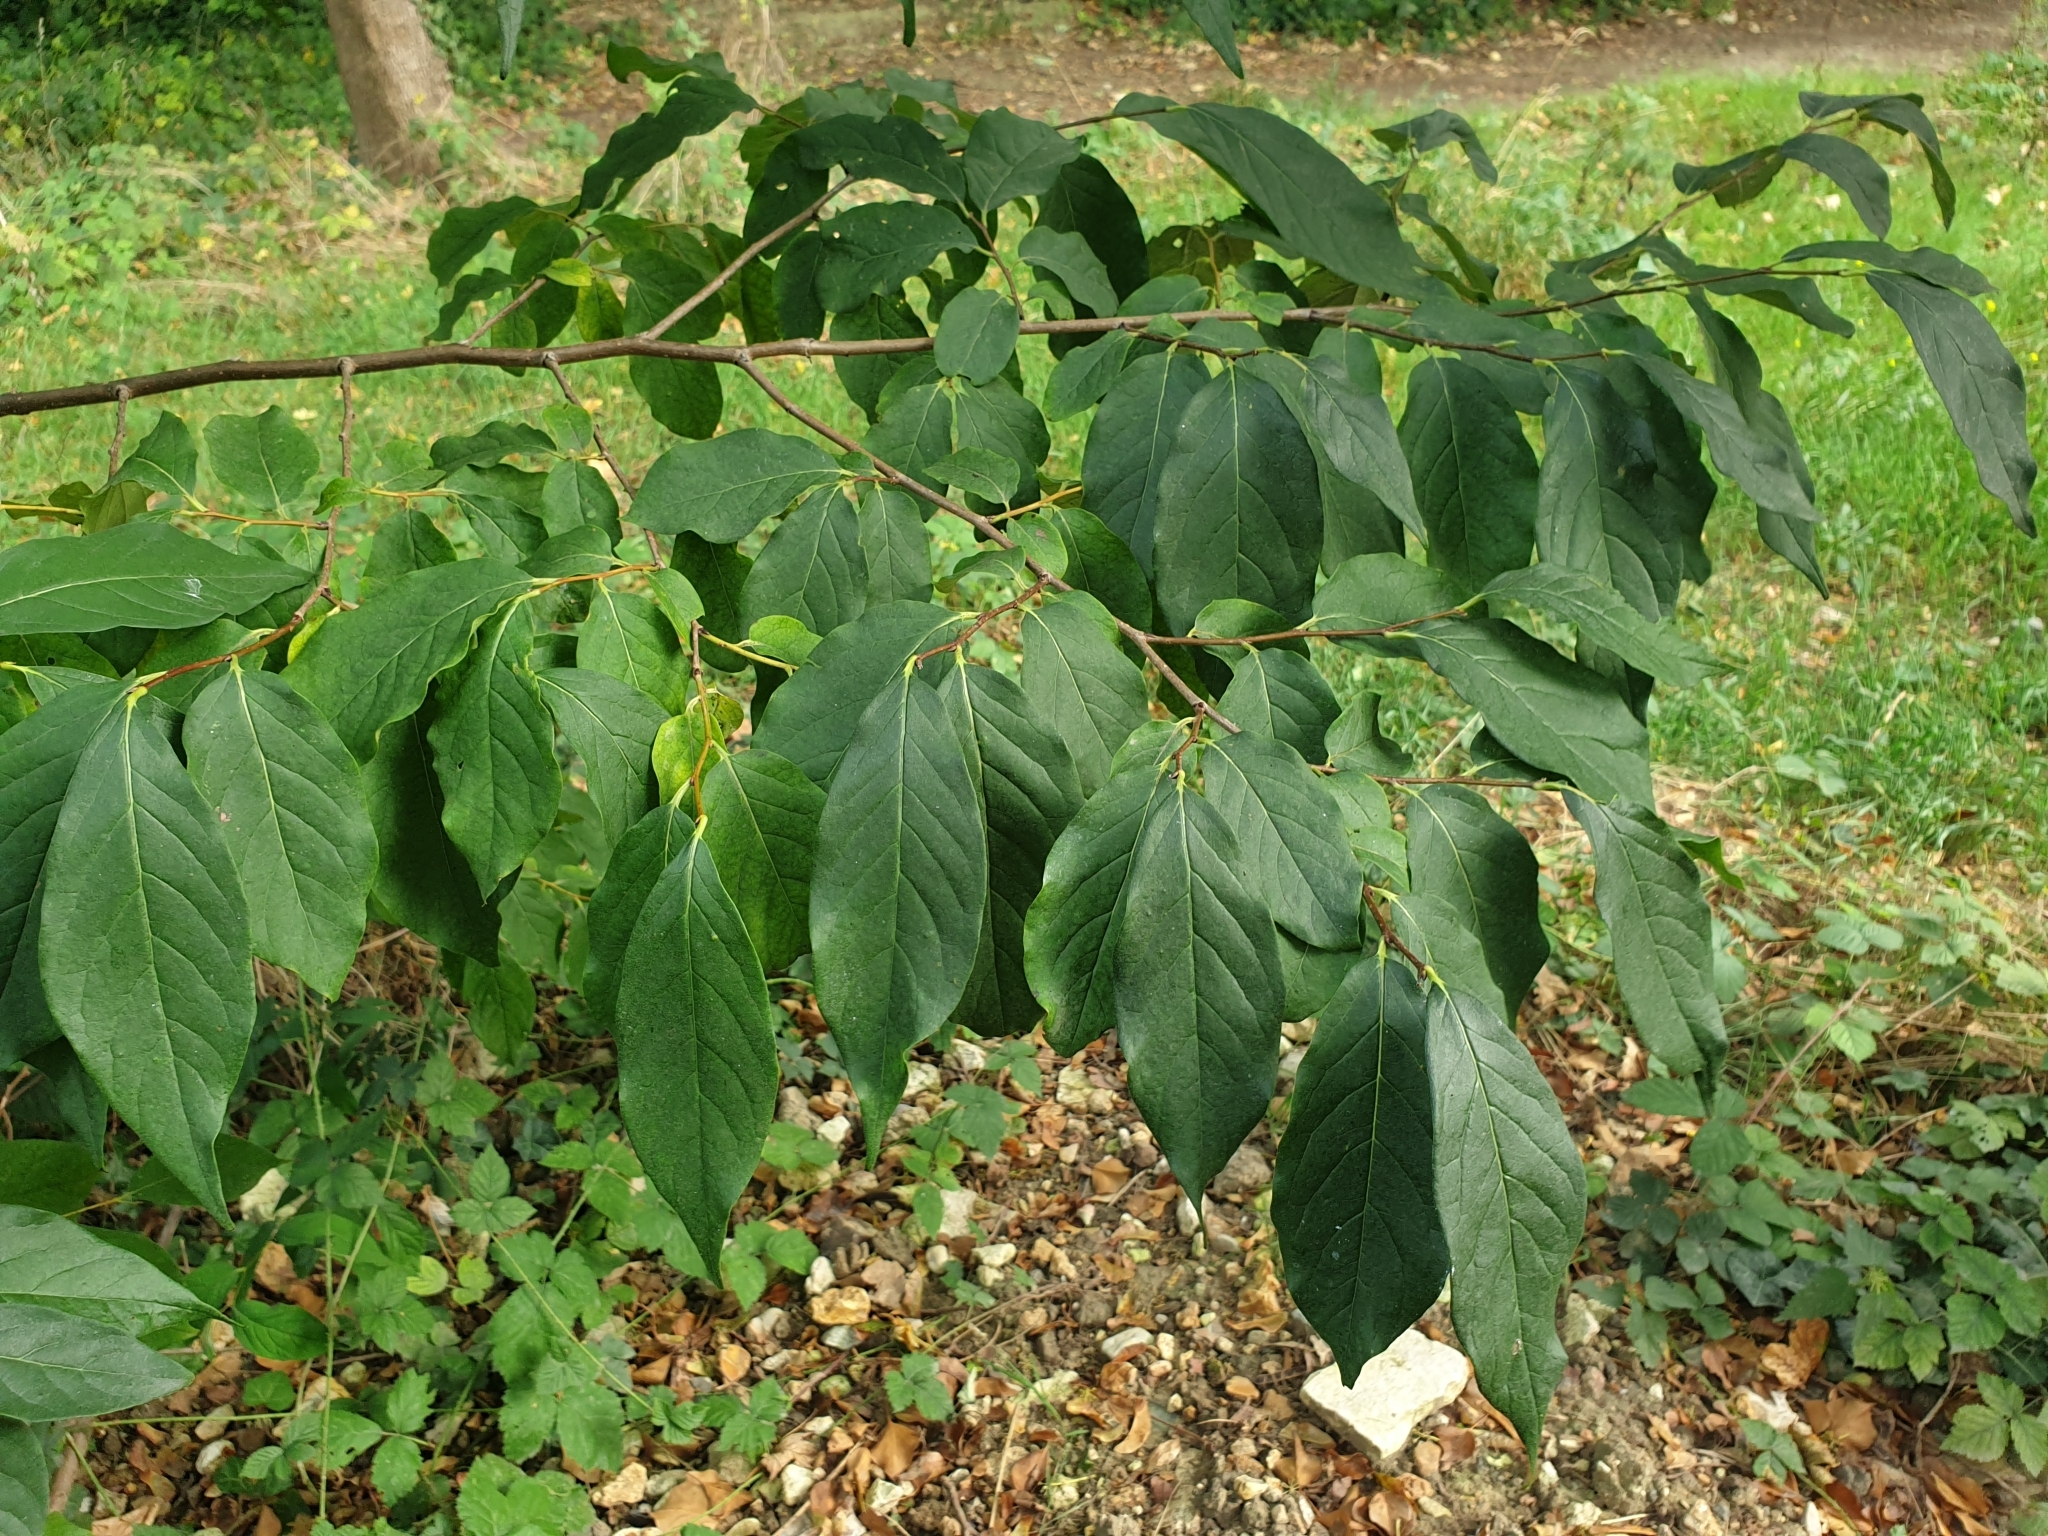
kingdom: Plantae
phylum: Tracheophyta
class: Magnoliopsida
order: Ericales
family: Ebenaceae
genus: Diospyros
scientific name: Diospyros lotus
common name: Date-plum
